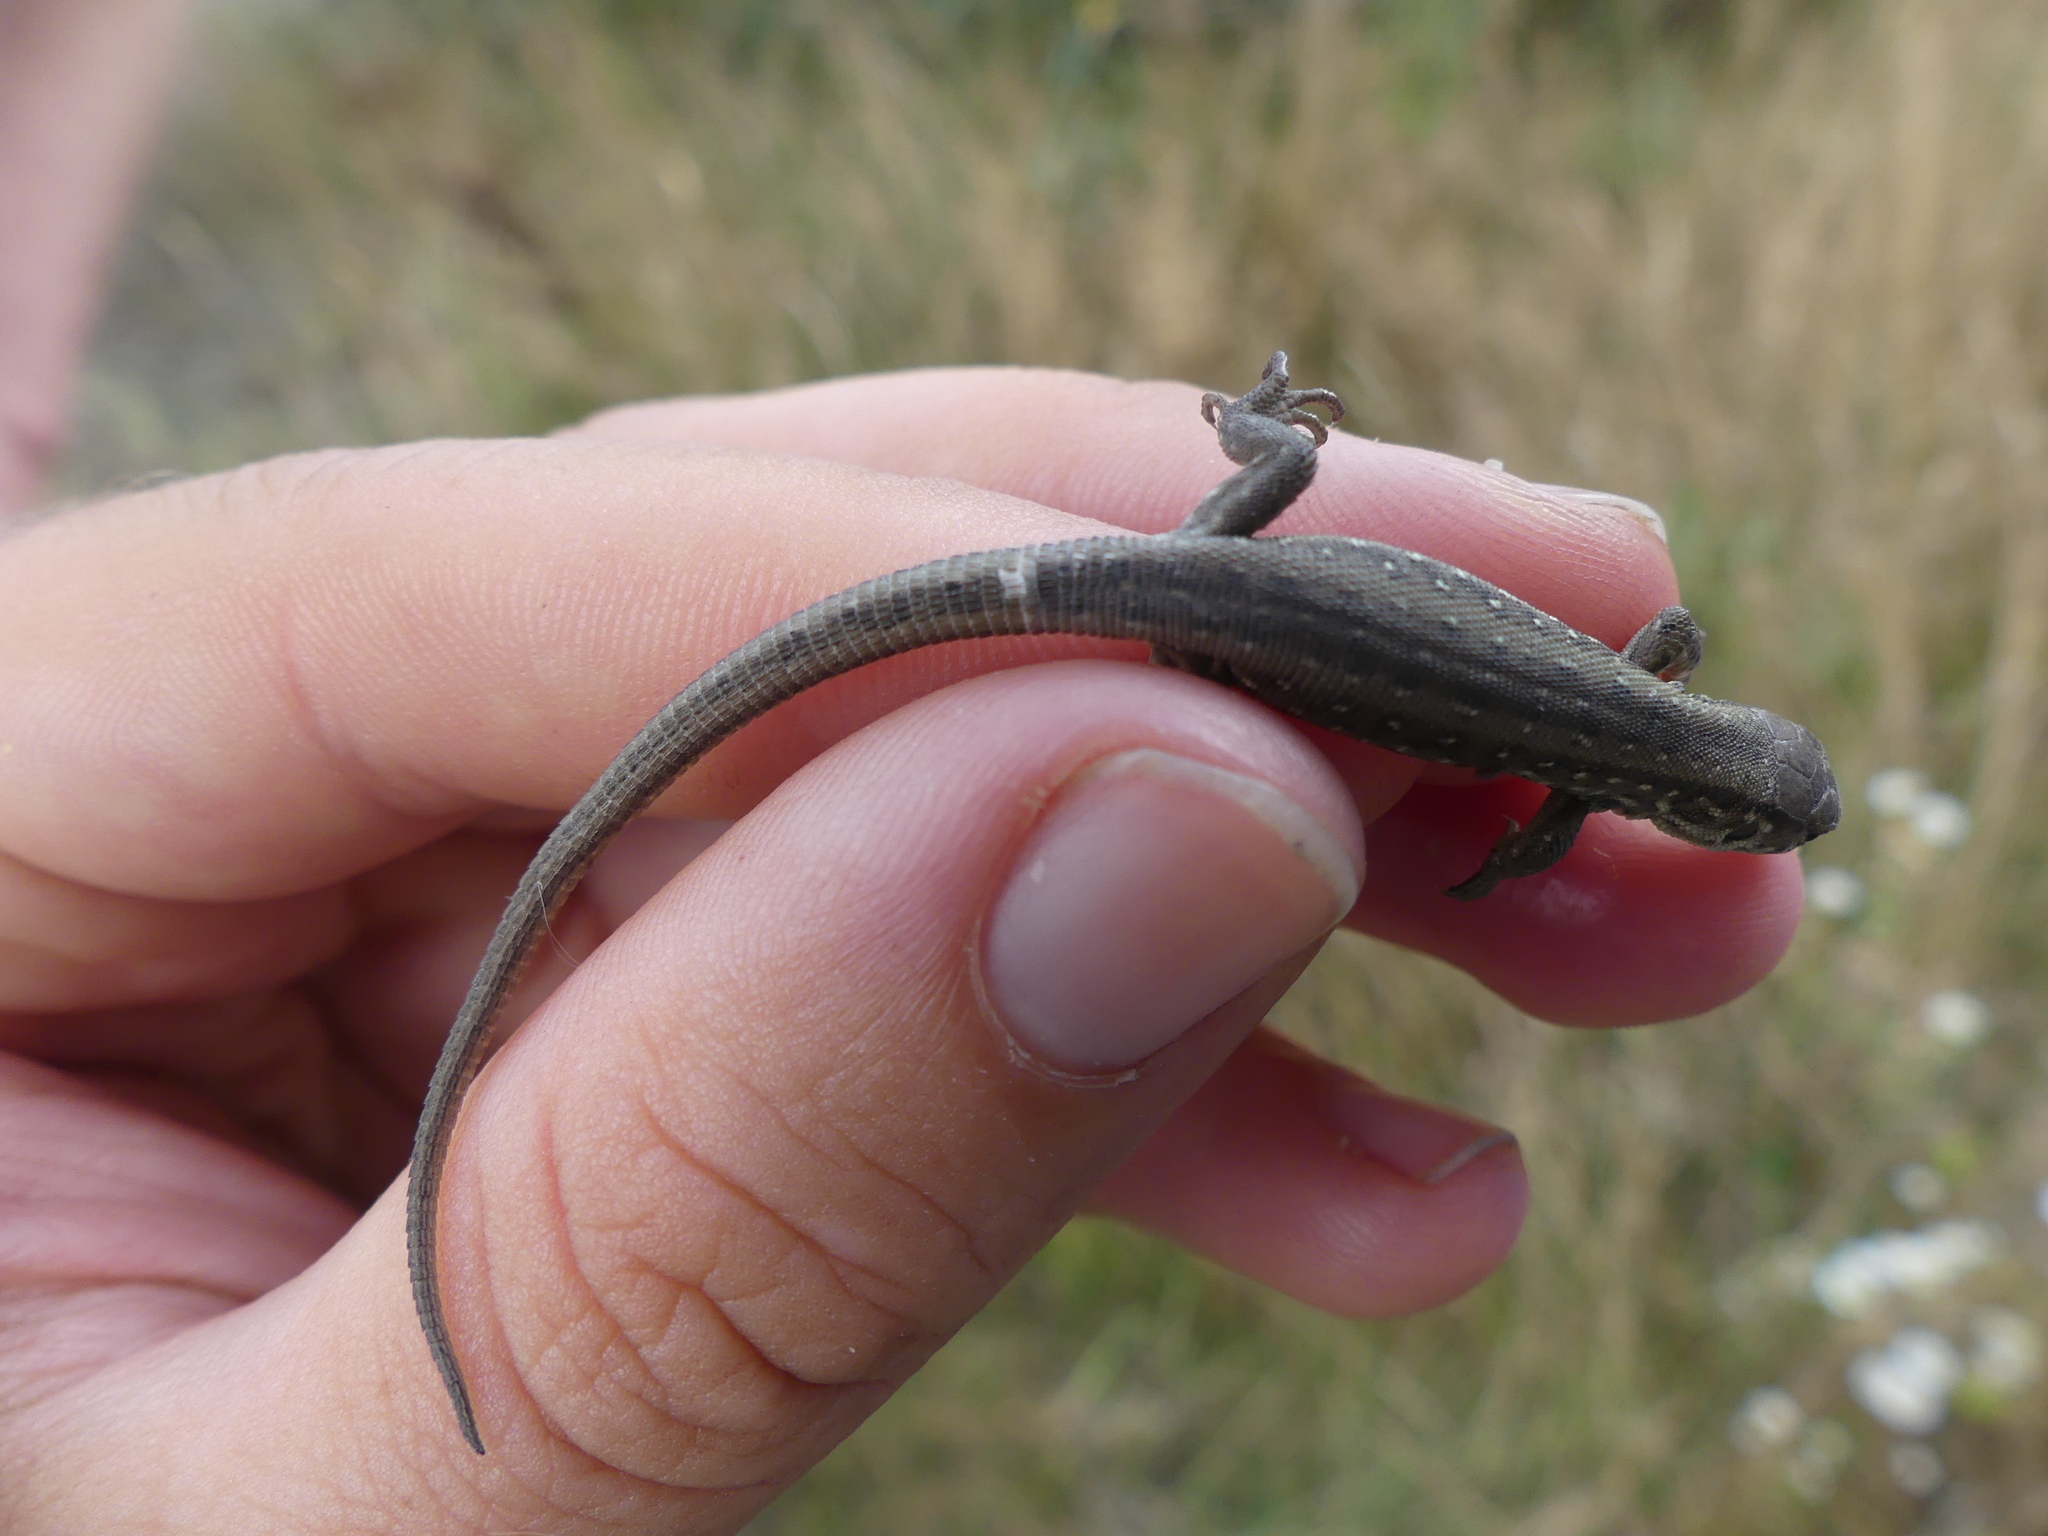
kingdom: Animalia
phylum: Chordata
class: Squamata
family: Lacertidae
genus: Lacerta
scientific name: Lacerta agilis
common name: Sand lizard
